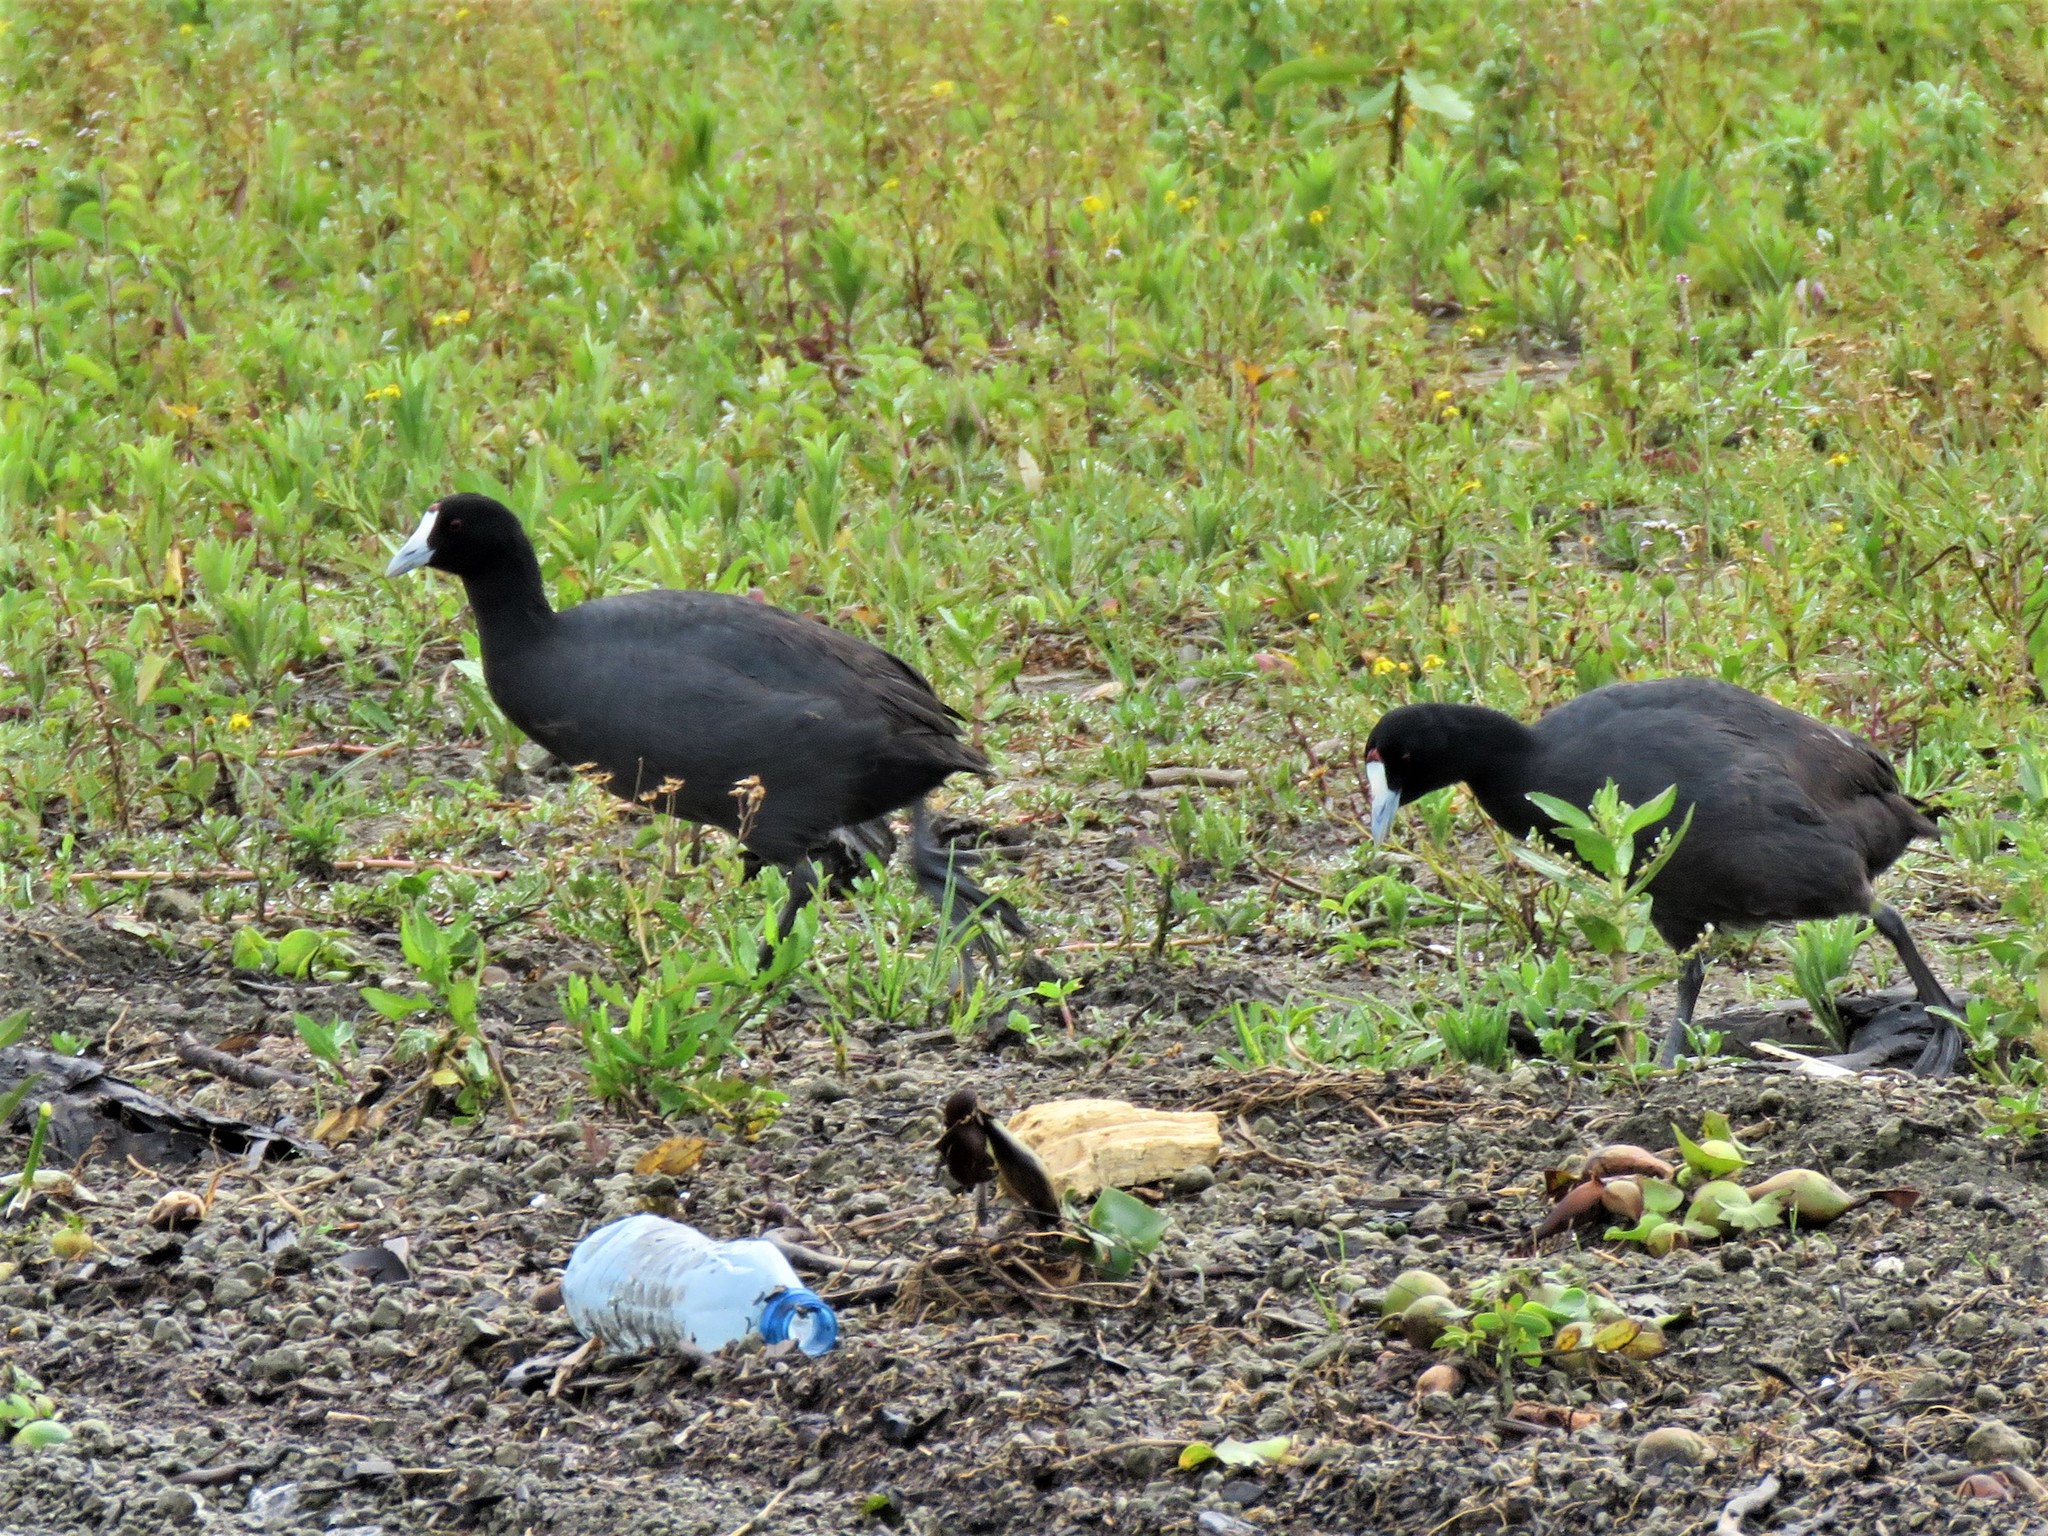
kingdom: Animalia
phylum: Chordata
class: Aves
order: Gruiformes
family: Rallidae
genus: Fulica
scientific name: Fulica cristata
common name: Red-knobbed coot
